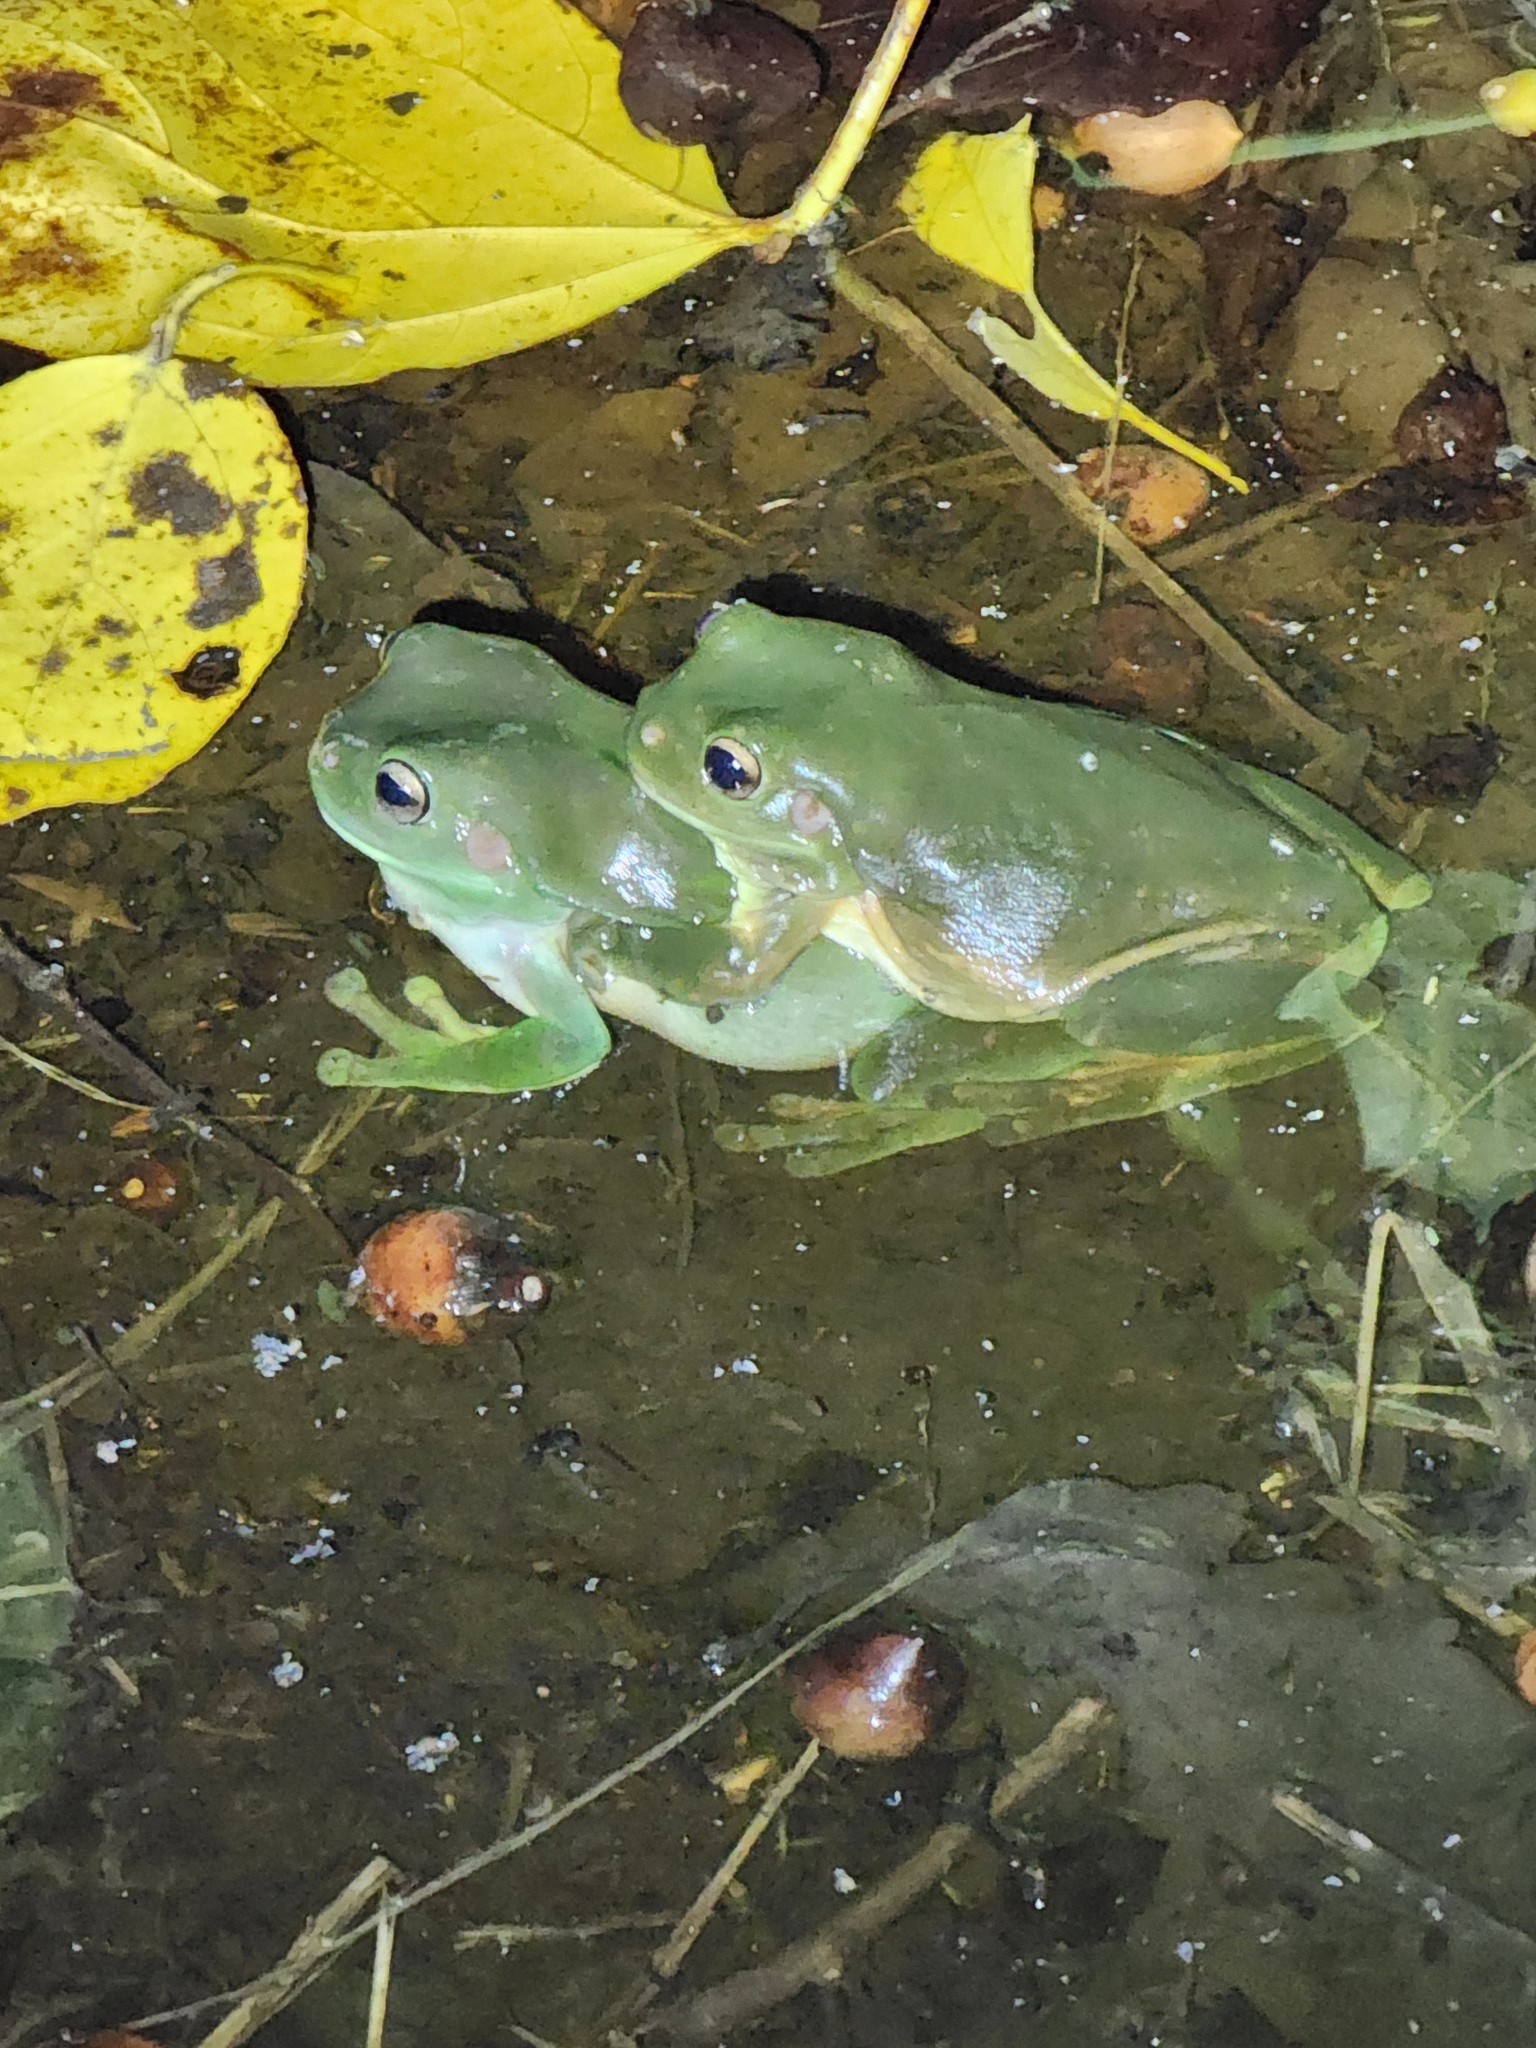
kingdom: Animalia
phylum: Chordata
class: Amphibia
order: Anura
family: Pelodryadidae
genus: Ranoidea
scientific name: Ranoidea caerulea
